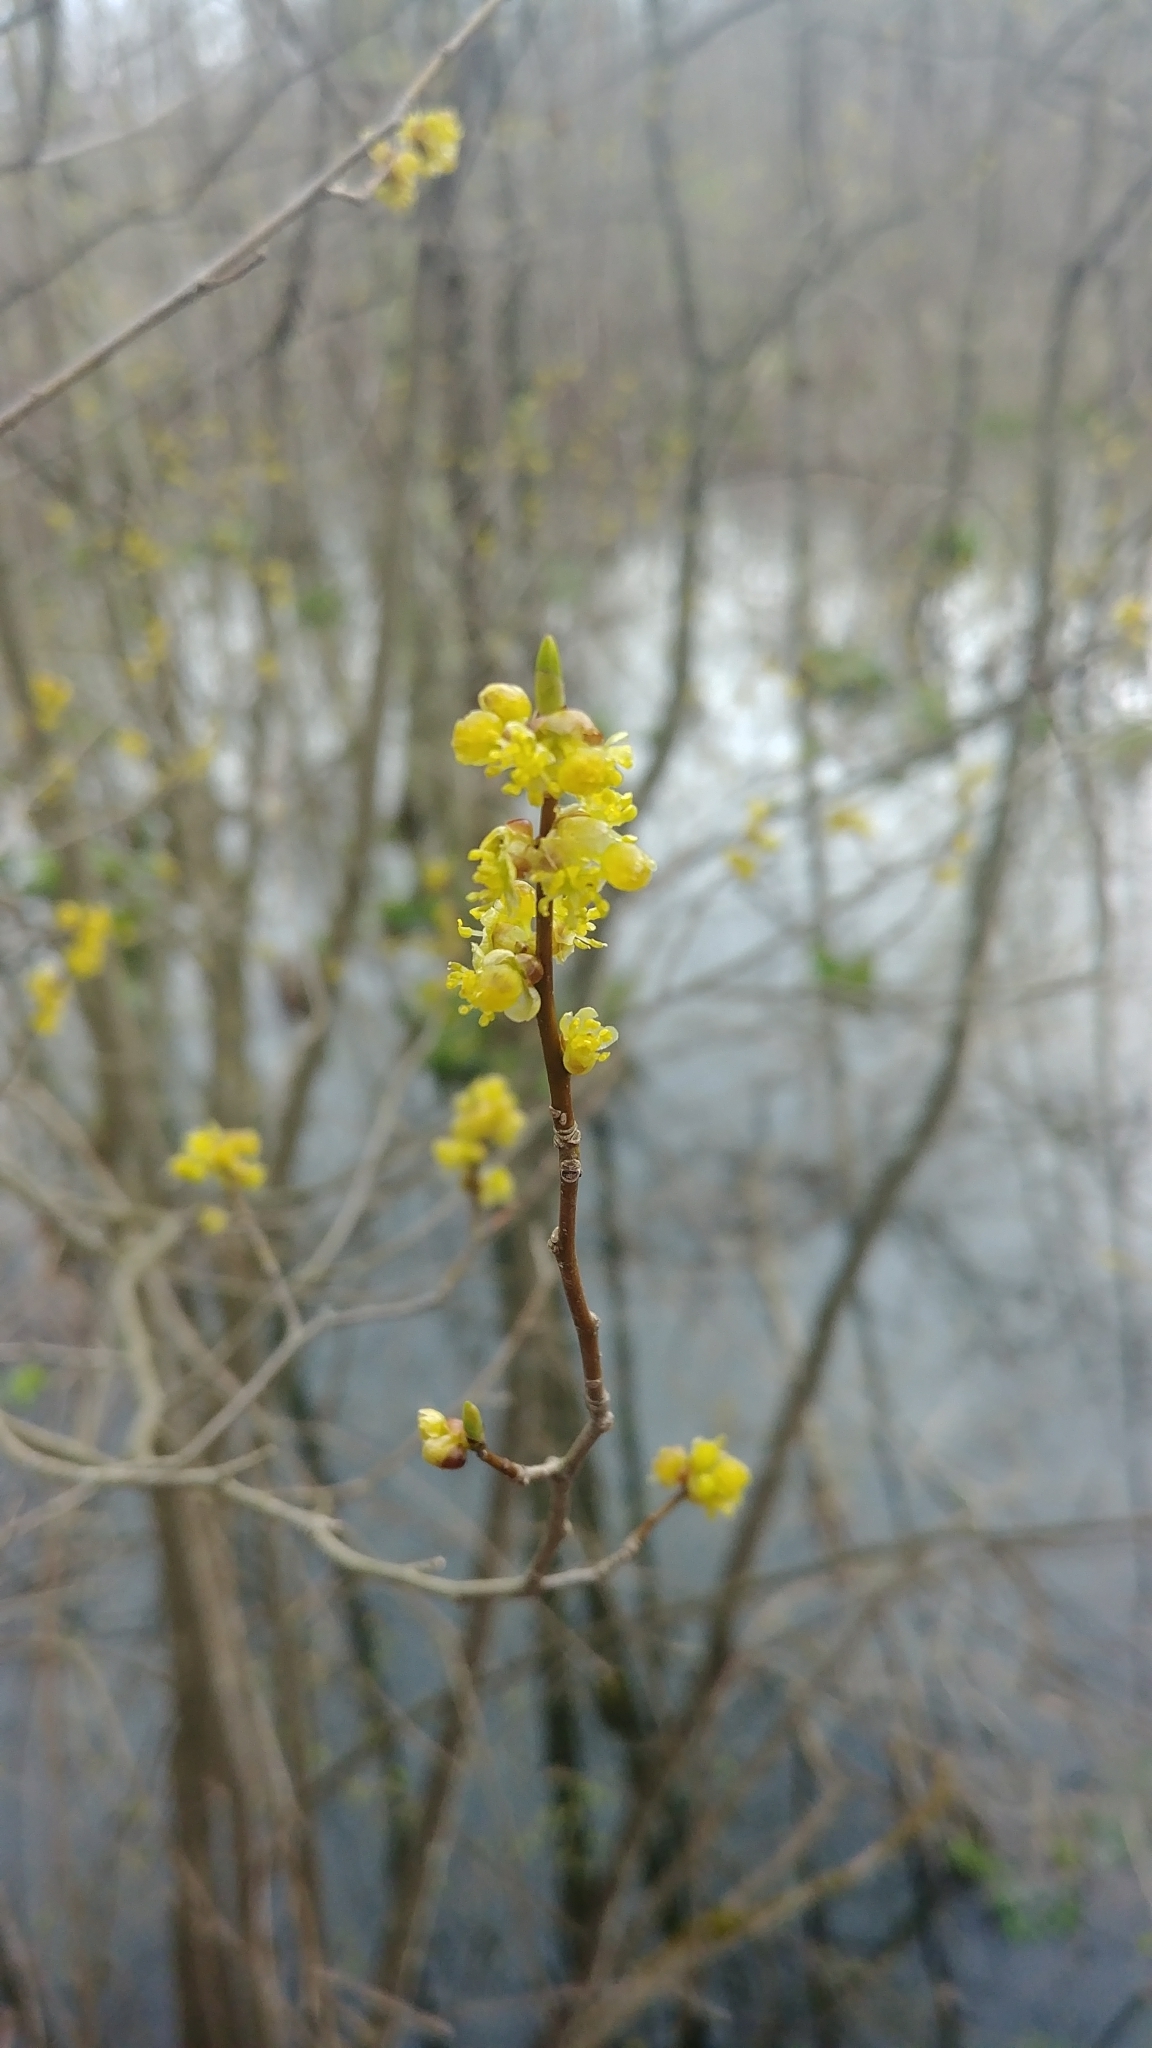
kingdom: Plantae
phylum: Tracheophyta
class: Magnoliopsida
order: Laurales
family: Lauraceae
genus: Lindera
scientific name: Lindera benzoin
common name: Spicebush
